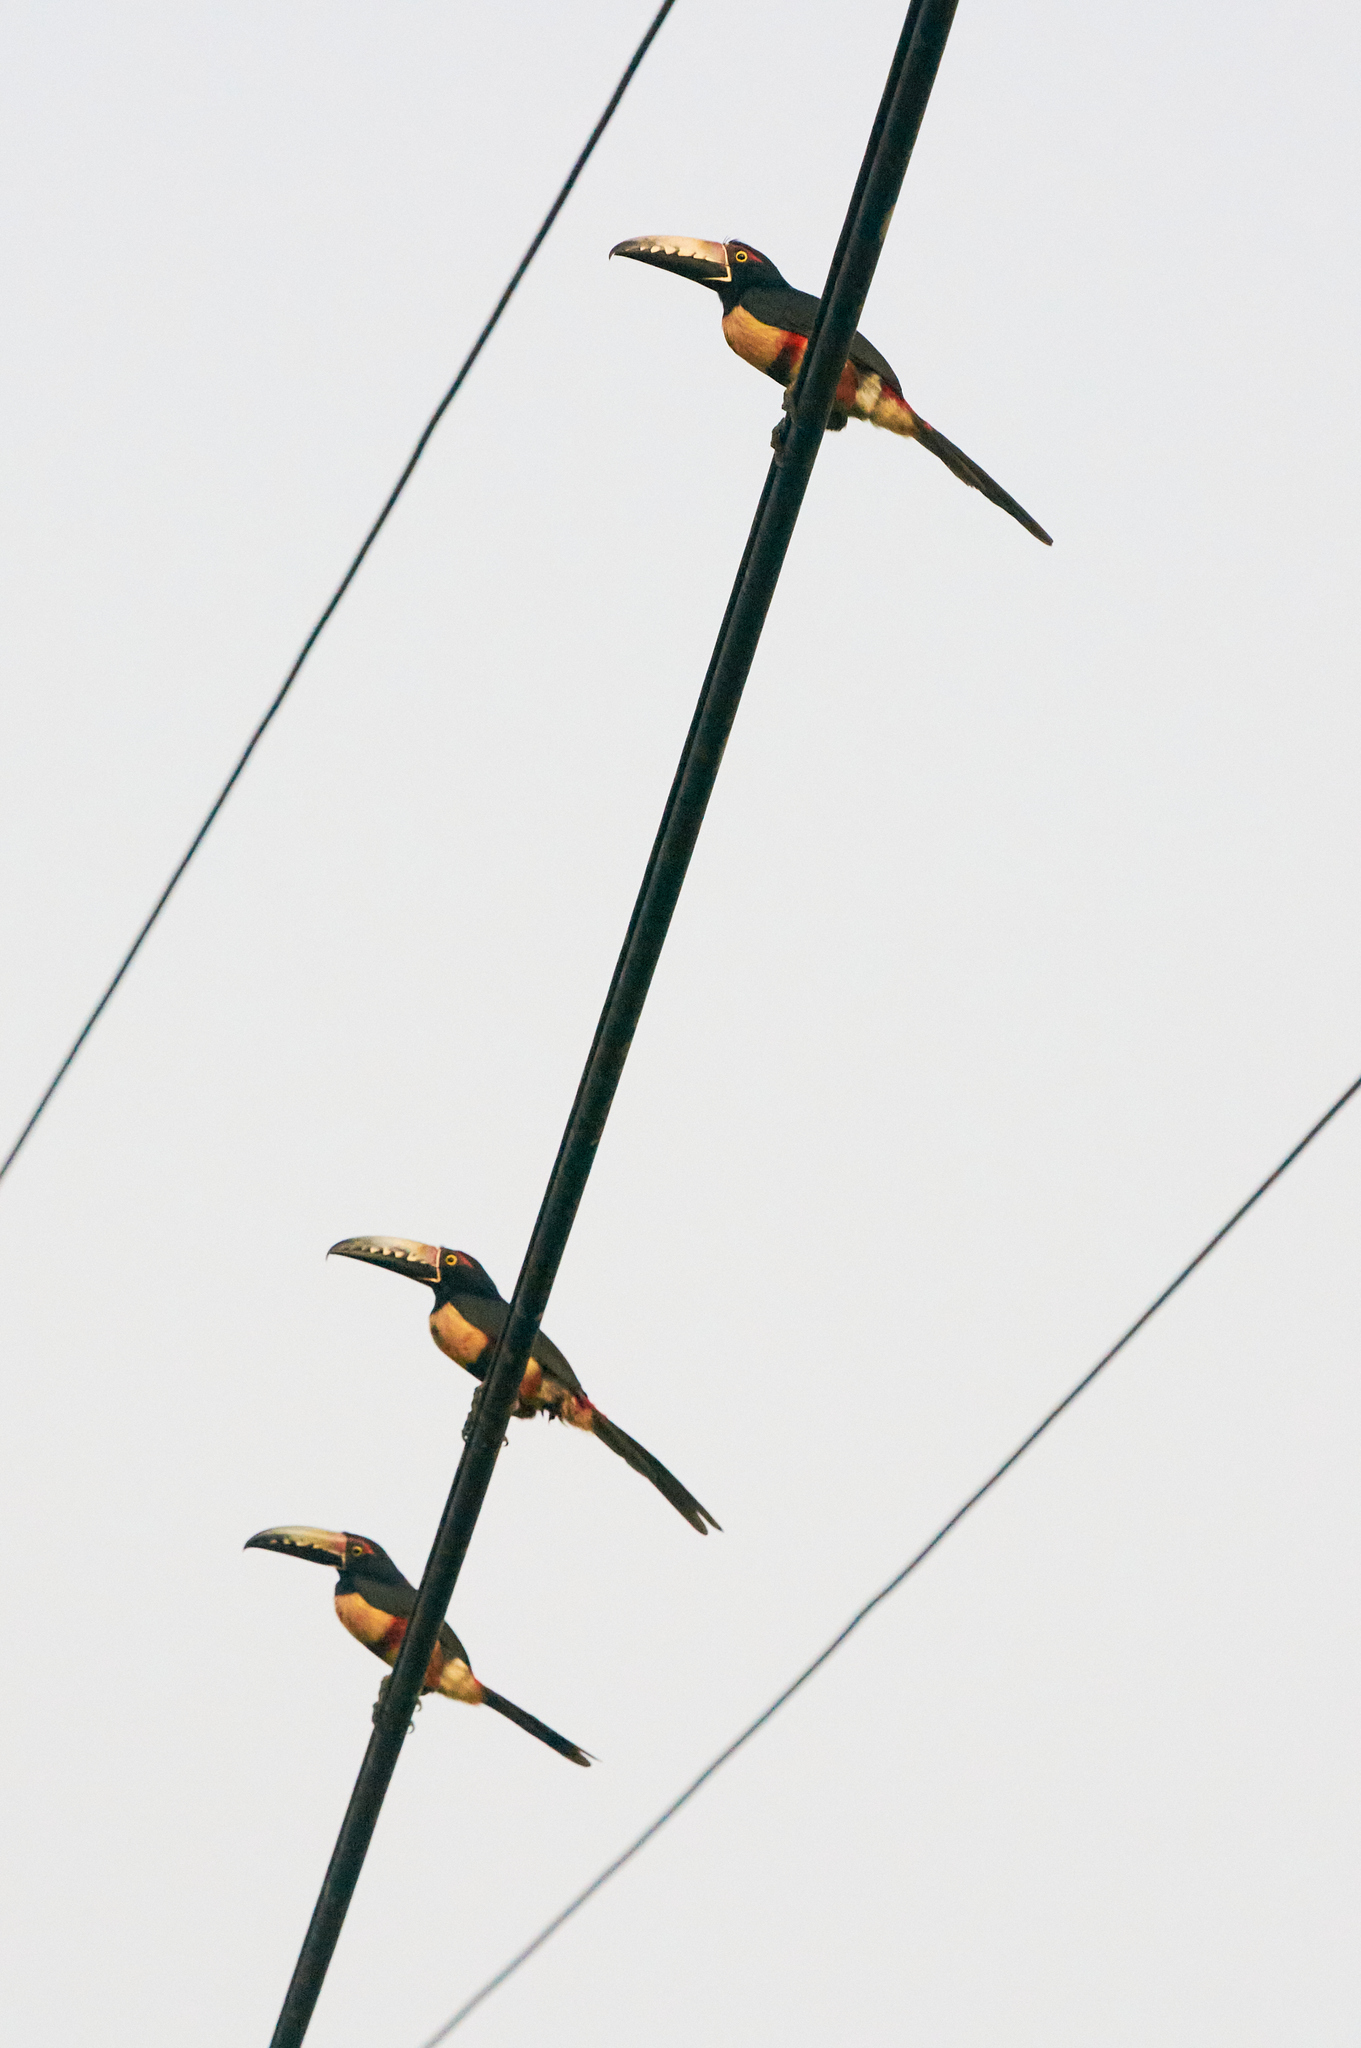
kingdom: Animalia
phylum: Chordata
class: Aves
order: Piciformes
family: Ramphastidae
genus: Pteroglossus
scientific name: Pteroglossus torquatus
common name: Collared aracari
